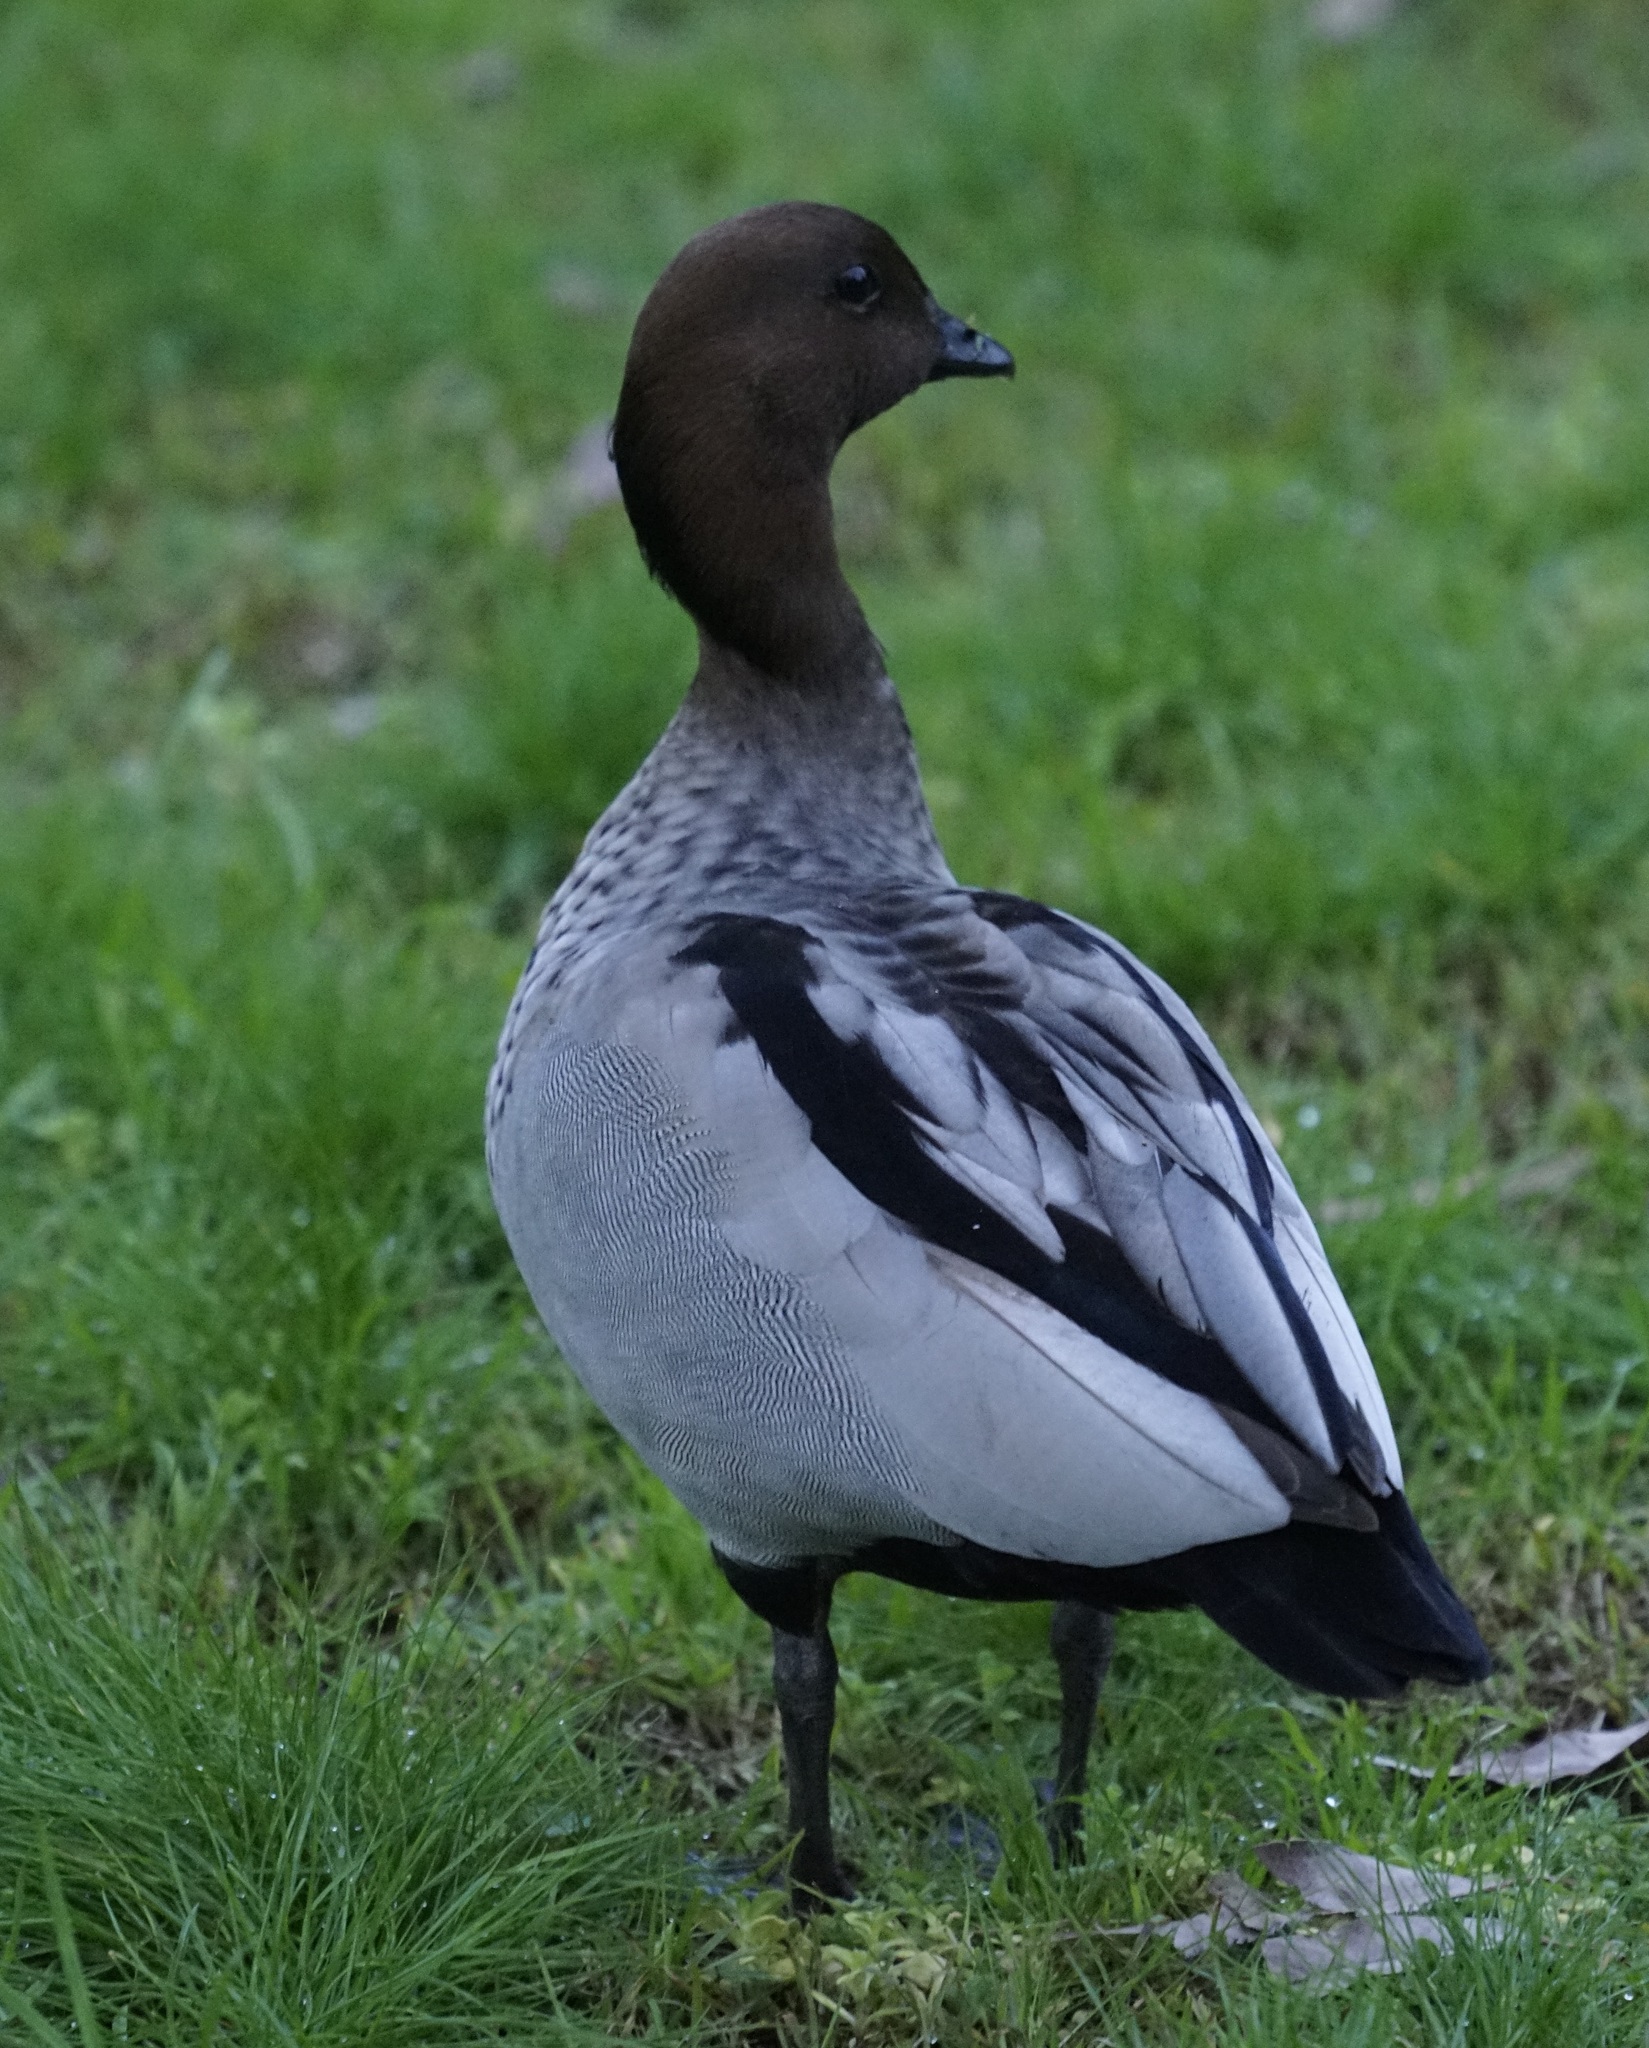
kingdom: Animalia
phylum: Chordata
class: Aves
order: Anseriformes
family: Anatidae
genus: Chenonetta
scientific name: Chenonetta jubata
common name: Maned duck
